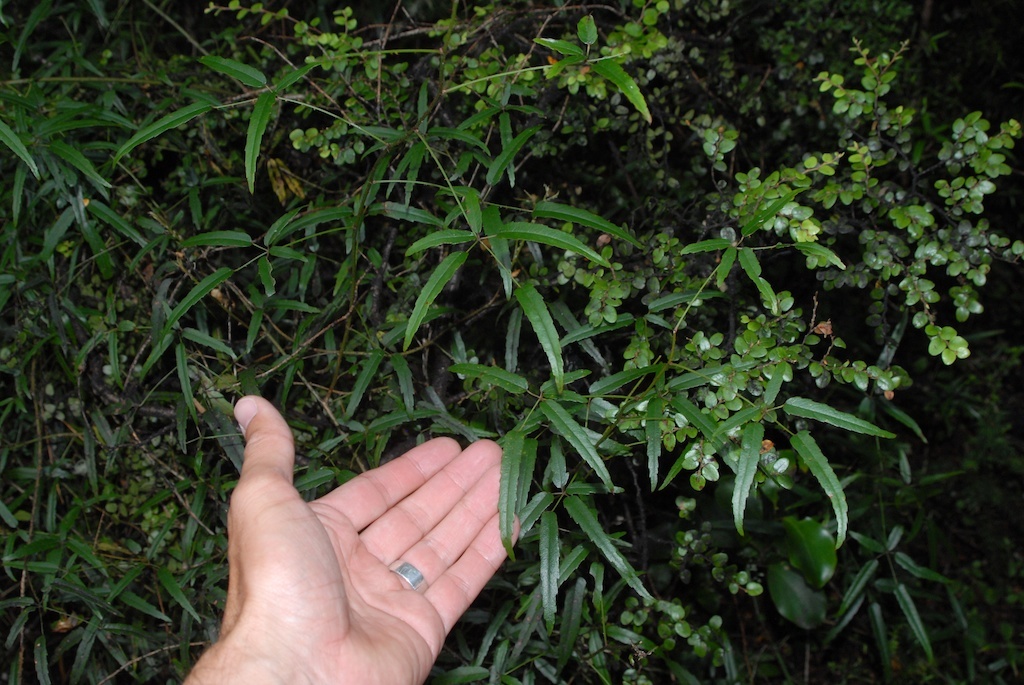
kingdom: Plantae
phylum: Tracheophyta
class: Magnoliopsida
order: Rosales
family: Rosaceae
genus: Rubus
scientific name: Rubus schmidelioides
